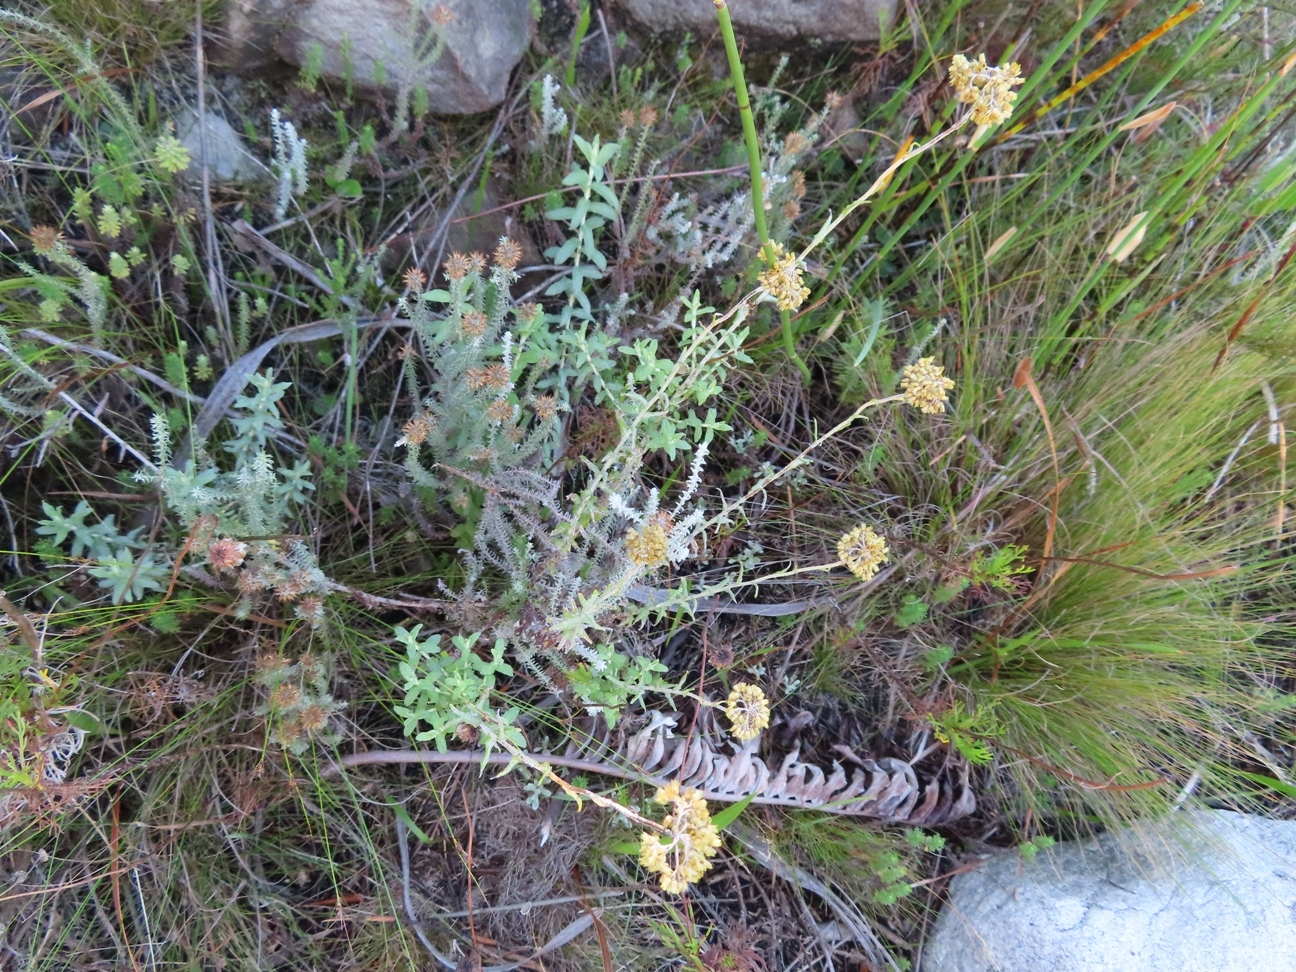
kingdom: Plantae
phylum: Tracheophyta
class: Magnoliopsida
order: Asterales
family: Asteraceae
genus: Helichrysum
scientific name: Helichrysum cymosum
